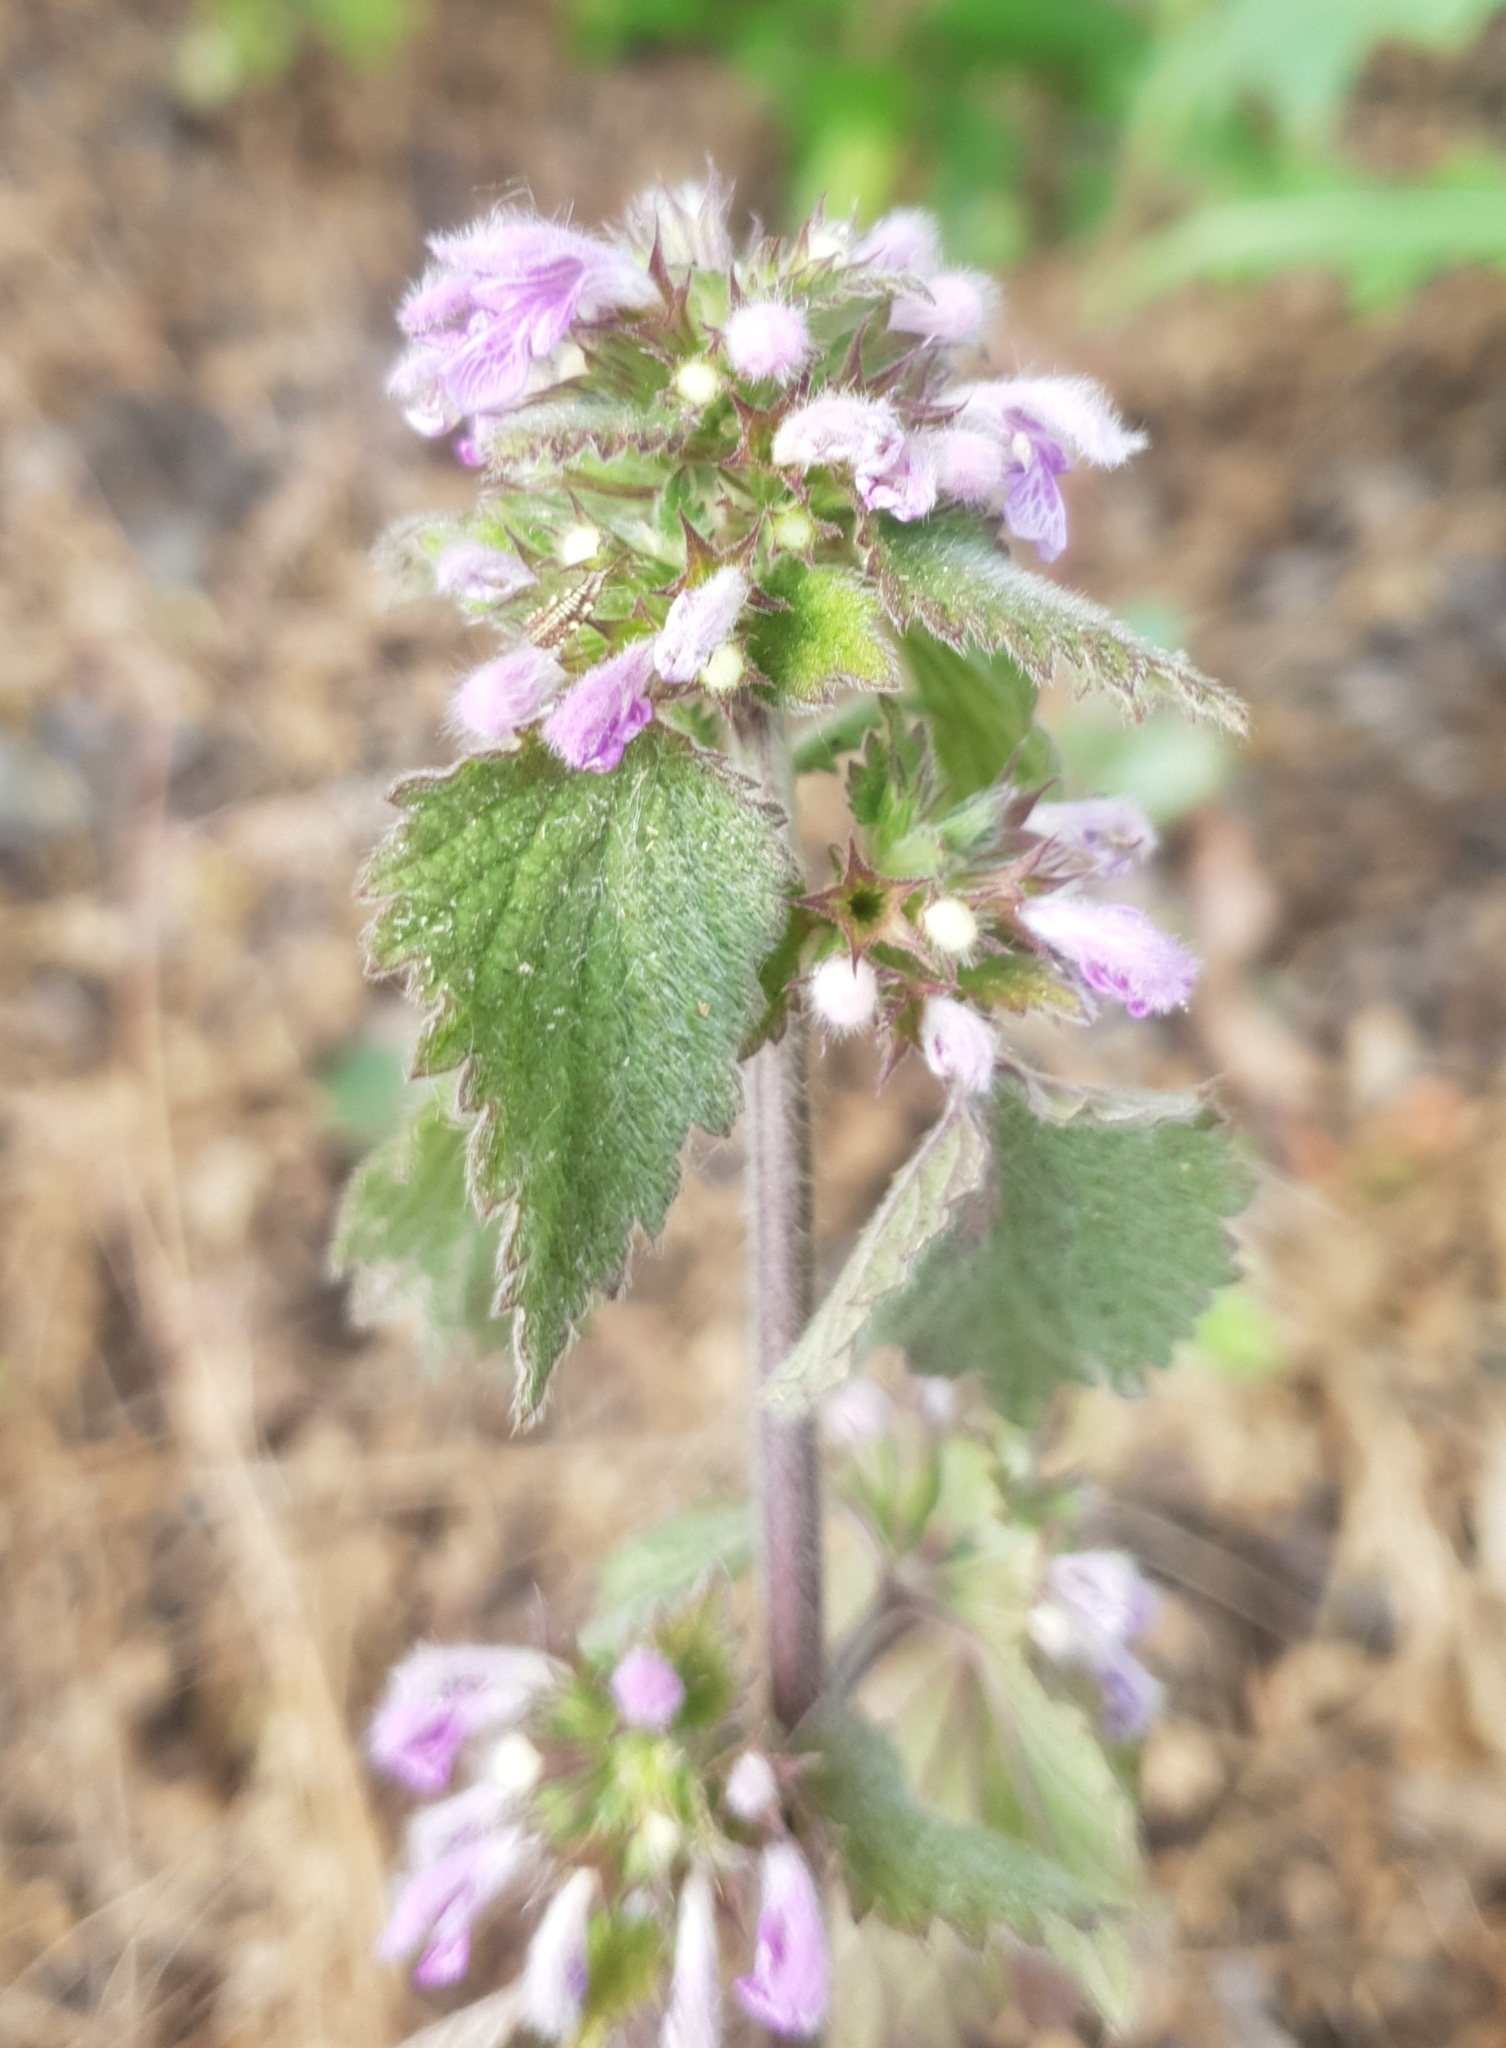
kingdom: Plantae
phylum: Tracheophyta
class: Magnoliopsida
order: Lamiales
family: Lamiaceae
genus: Ballota
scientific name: Ballota nigra
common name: Black horehound
